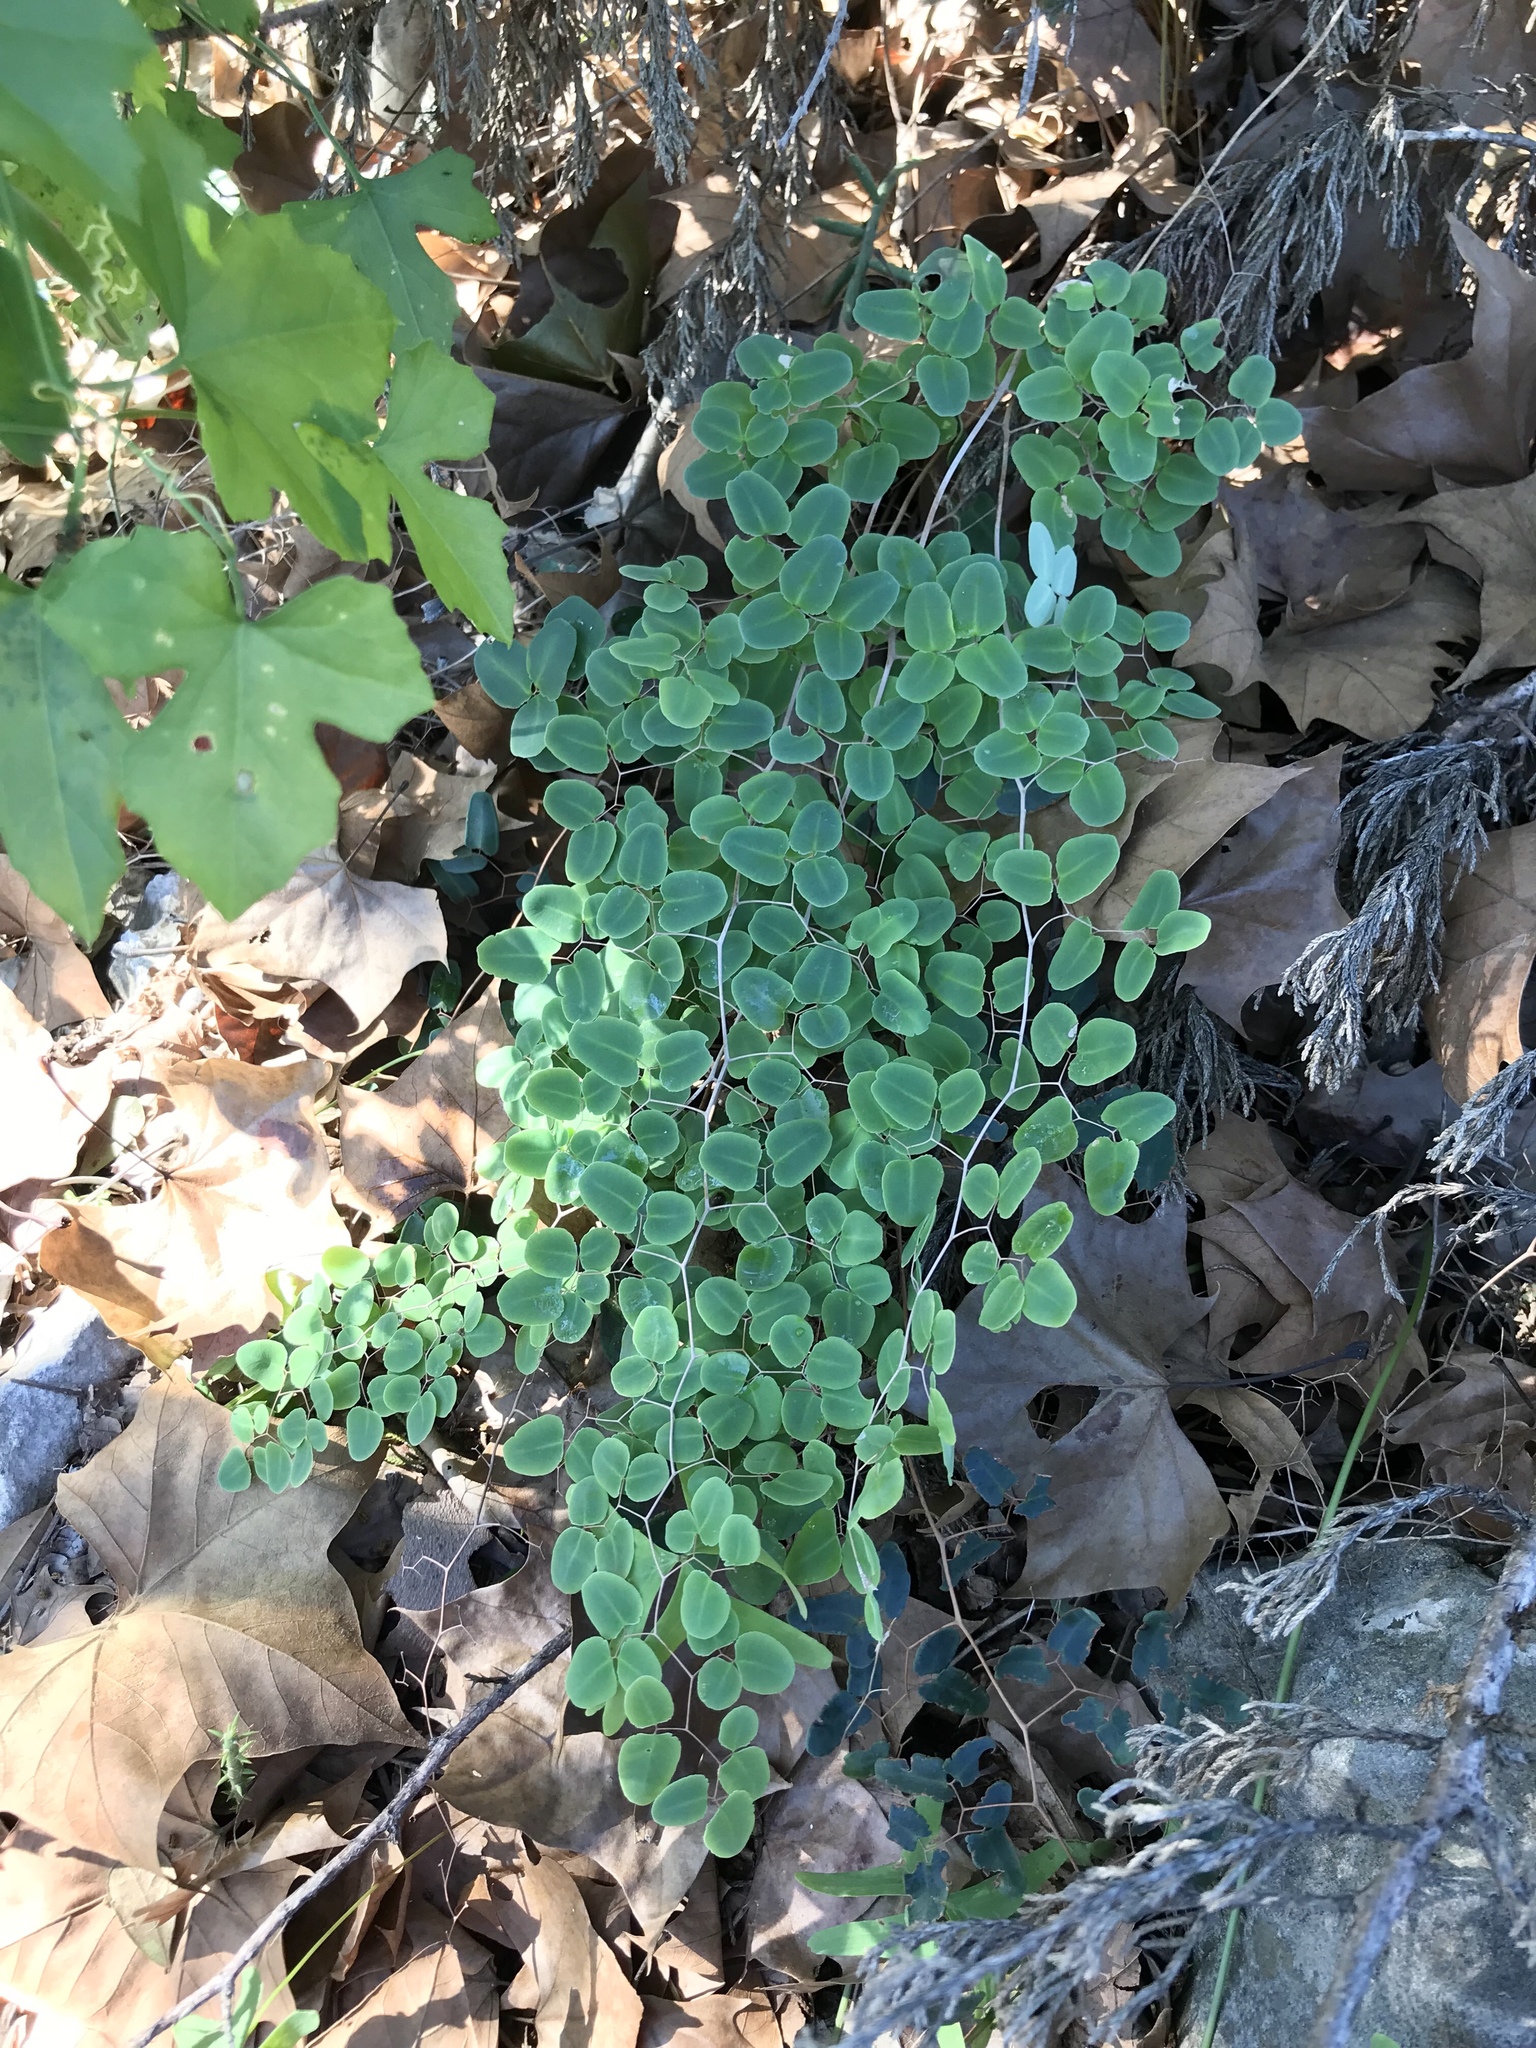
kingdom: Plantae
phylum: Tracheophyta
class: Polypodiopsida
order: Polypodiales
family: Pteridaceae
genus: Pellaea
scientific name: Pellaea ovata
